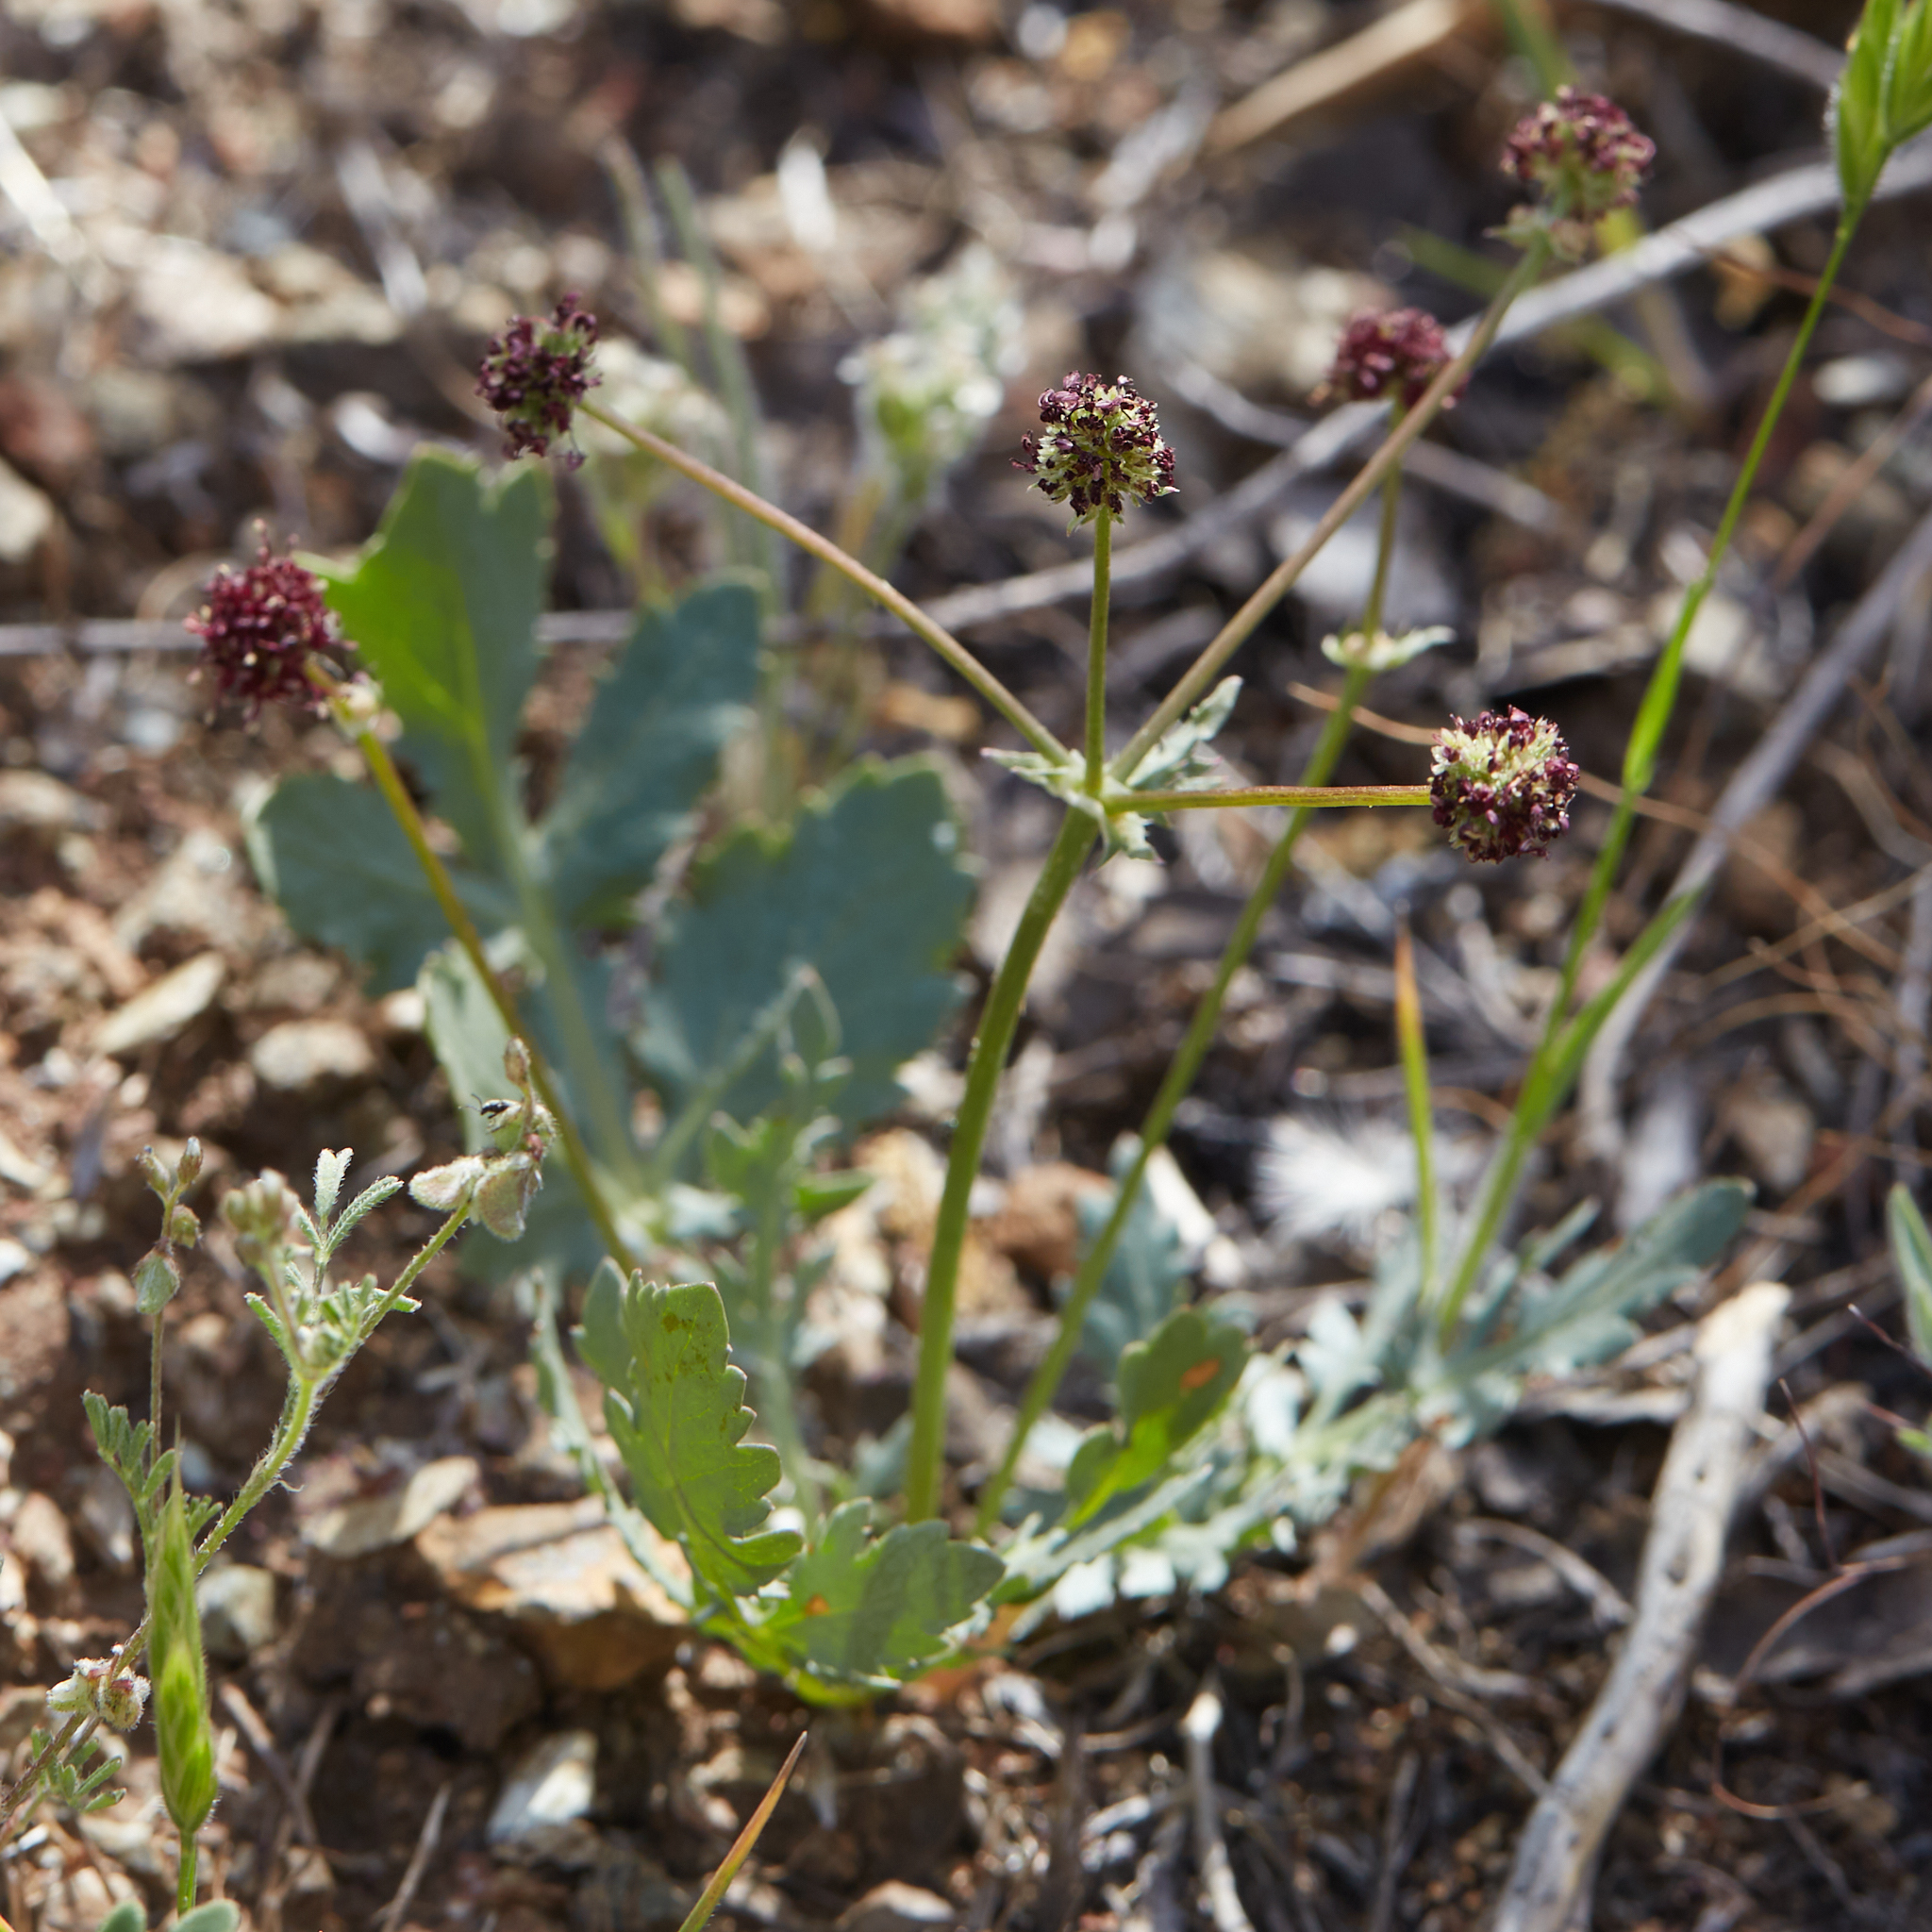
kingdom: Plantae
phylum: Tracheophyta
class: Magnoliopsida
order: Apiales
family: Apiaceae
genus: Sanicula
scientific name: Sanicula bipinnatifida
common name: Shoe-buttons
